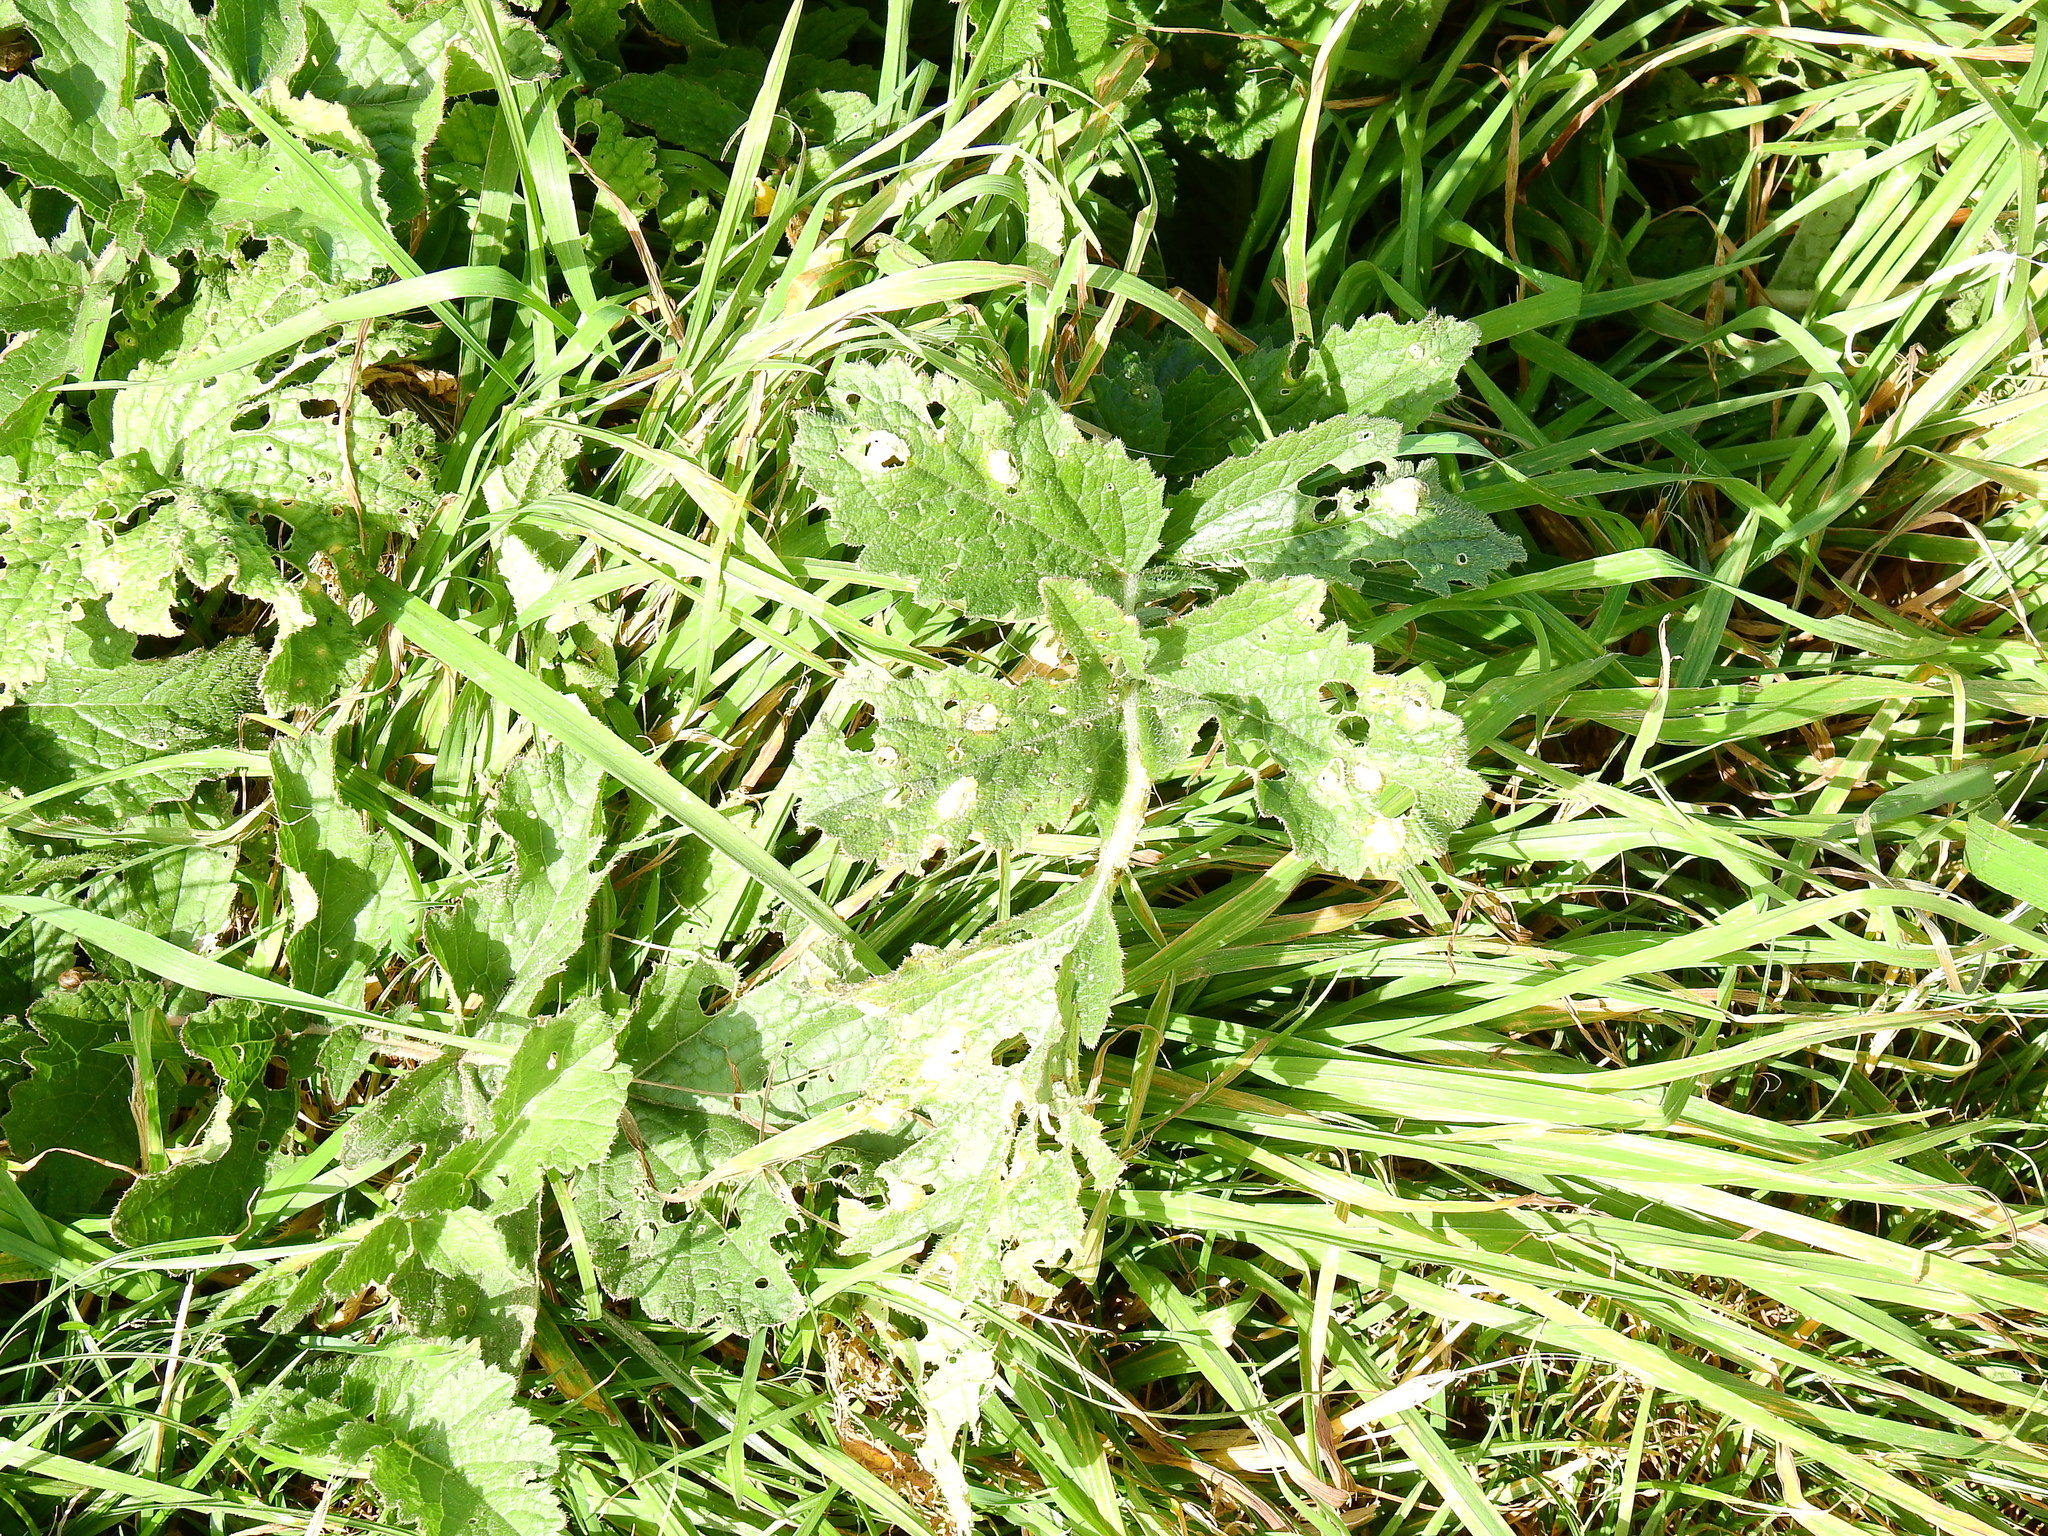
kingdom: Chromista
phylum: Oomycota
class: Peronosporea
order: Albuginales
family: Albuginaceae
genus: Albugo
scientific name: Albugo candida
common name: Crucifer white blister
